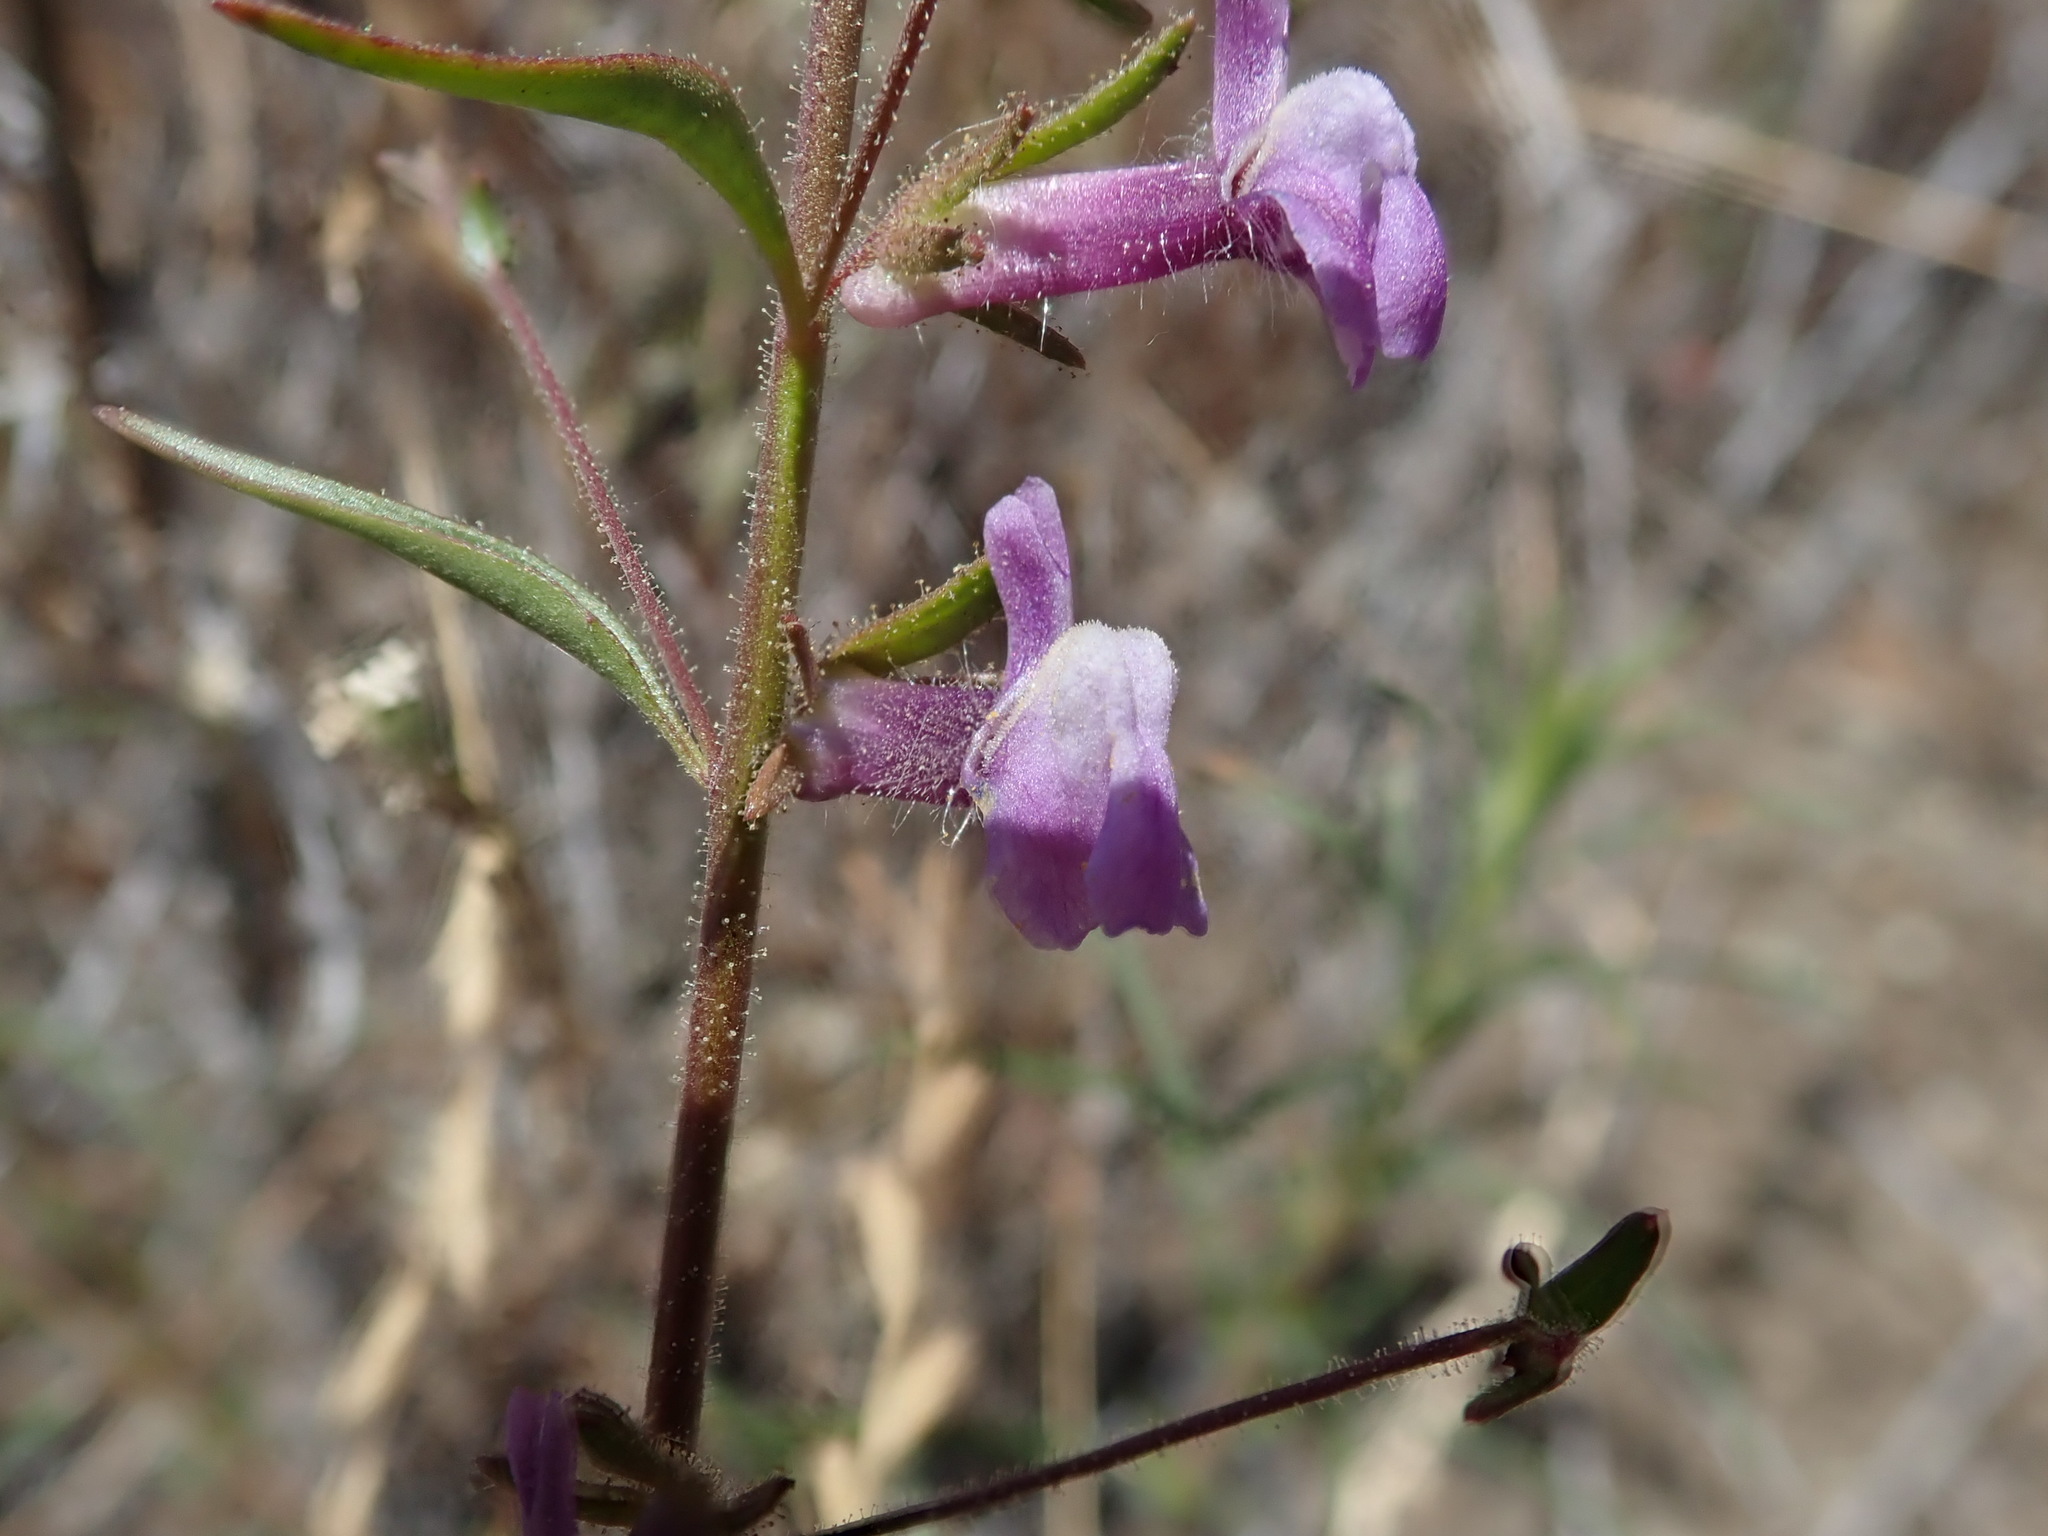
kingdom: Plantae
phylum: Tracheophyta
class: Magnoliopsida
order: Lamiales
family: Plantaginaceae
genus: Sairocarpus
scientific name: Sairocarpus vexillocalyculatus
